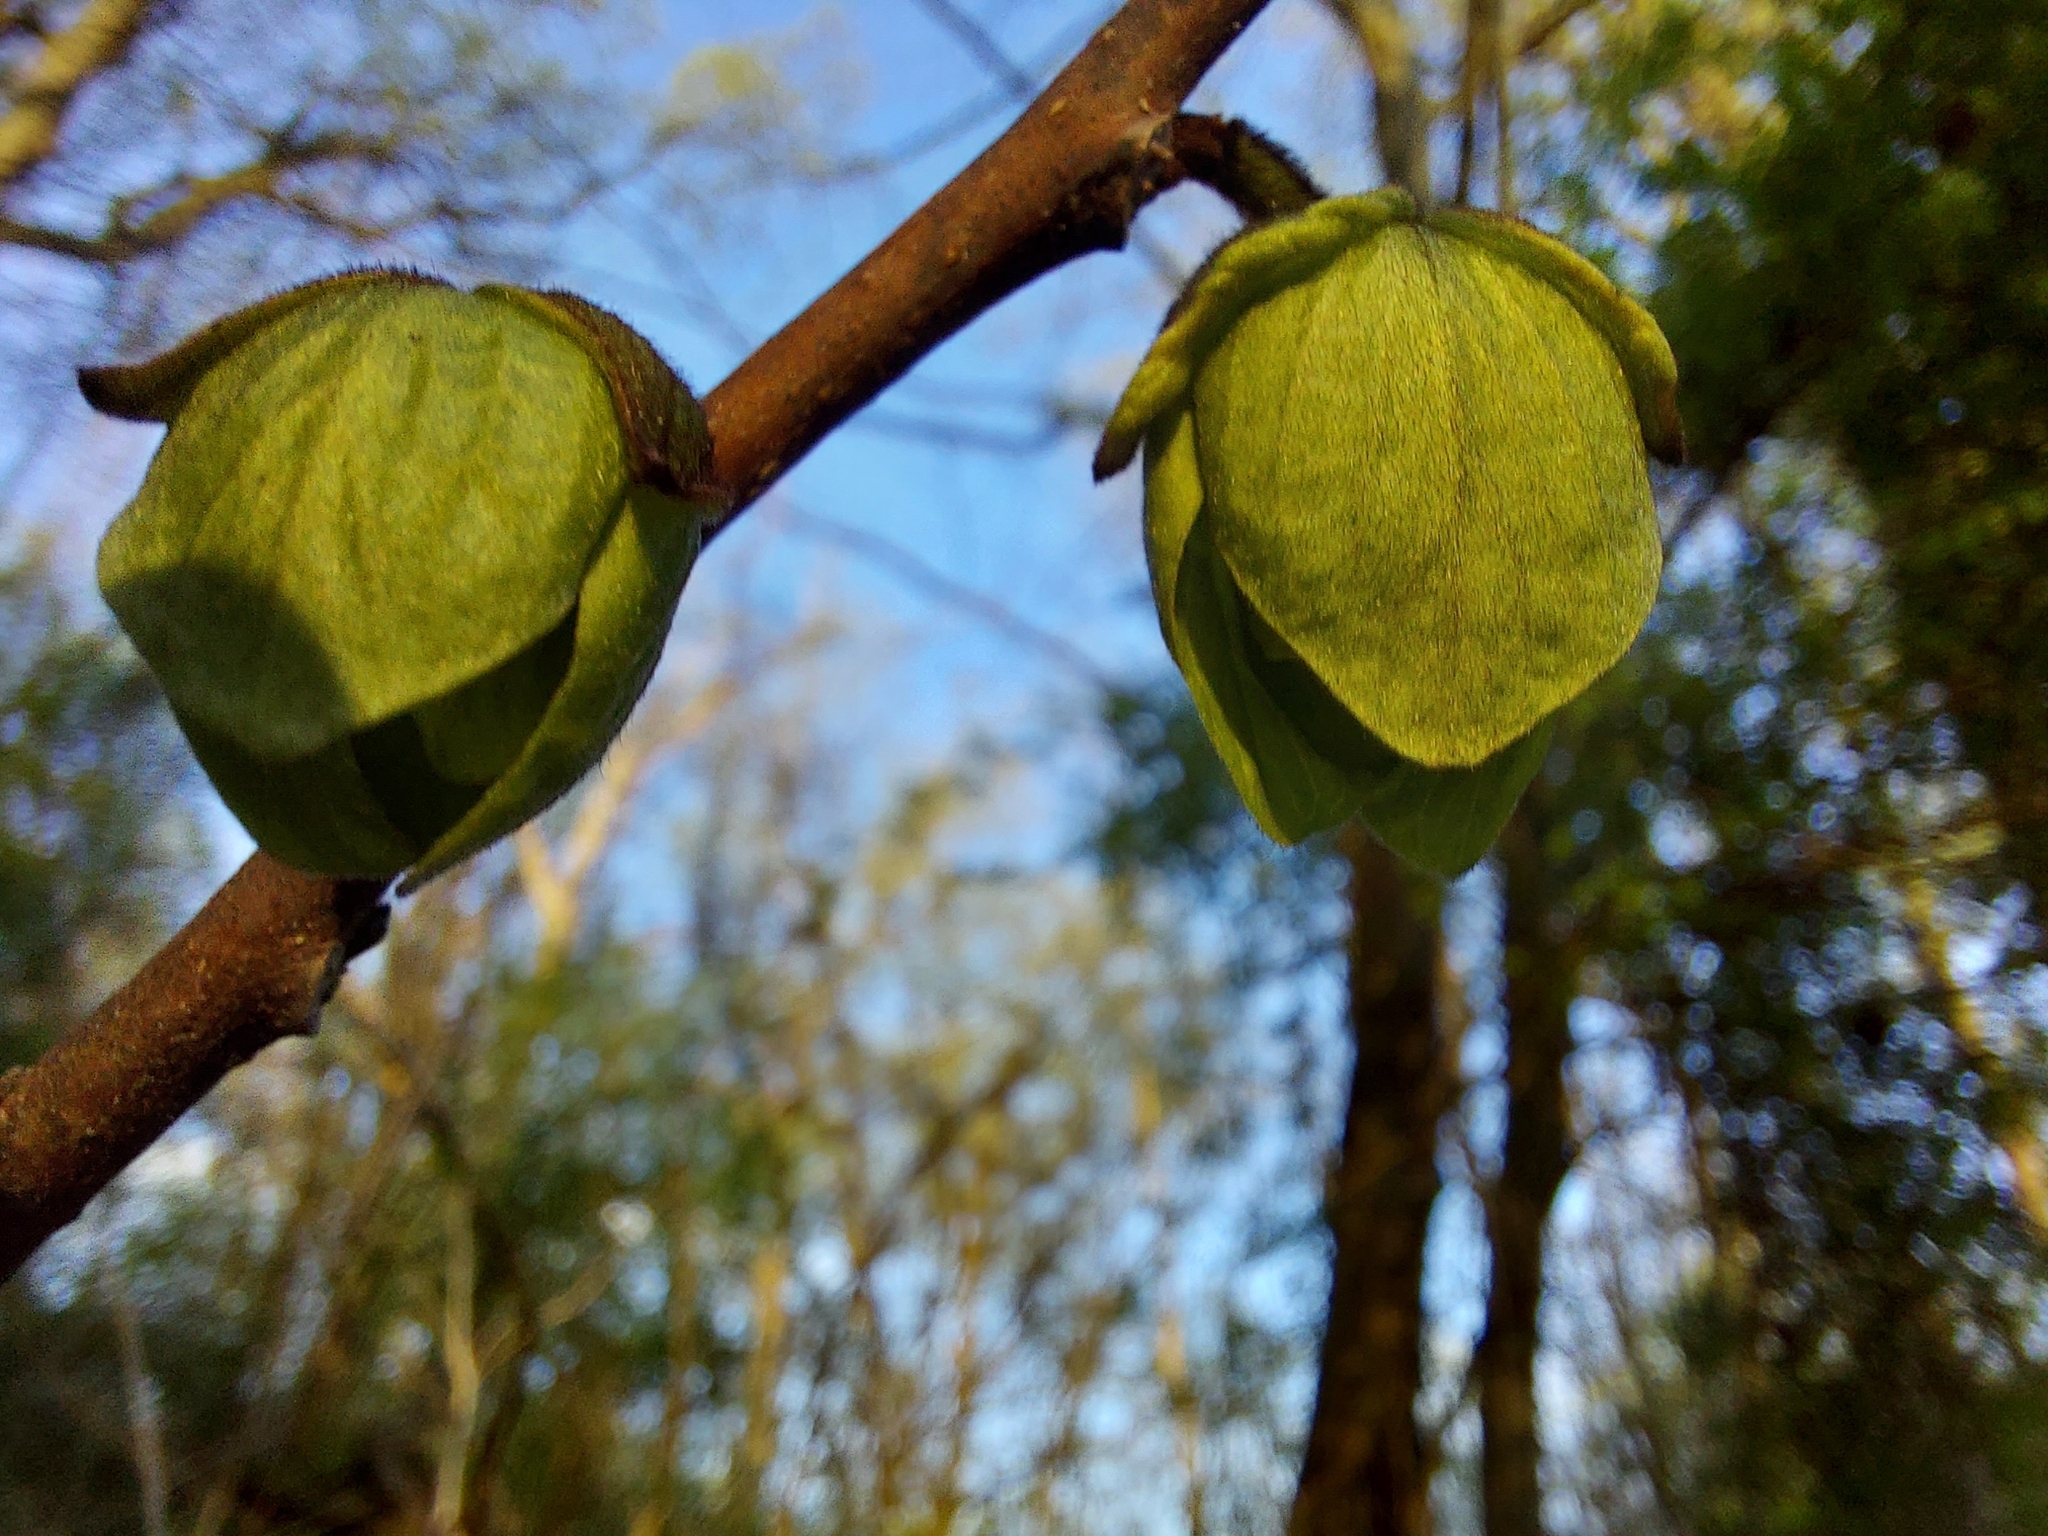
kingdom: Plantae
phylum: Tracheophyta
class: Magnoliopsida
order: Magnoliales
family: Annonaceae
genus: Asimina
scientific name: Asimina triloba
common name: Dog-banana
